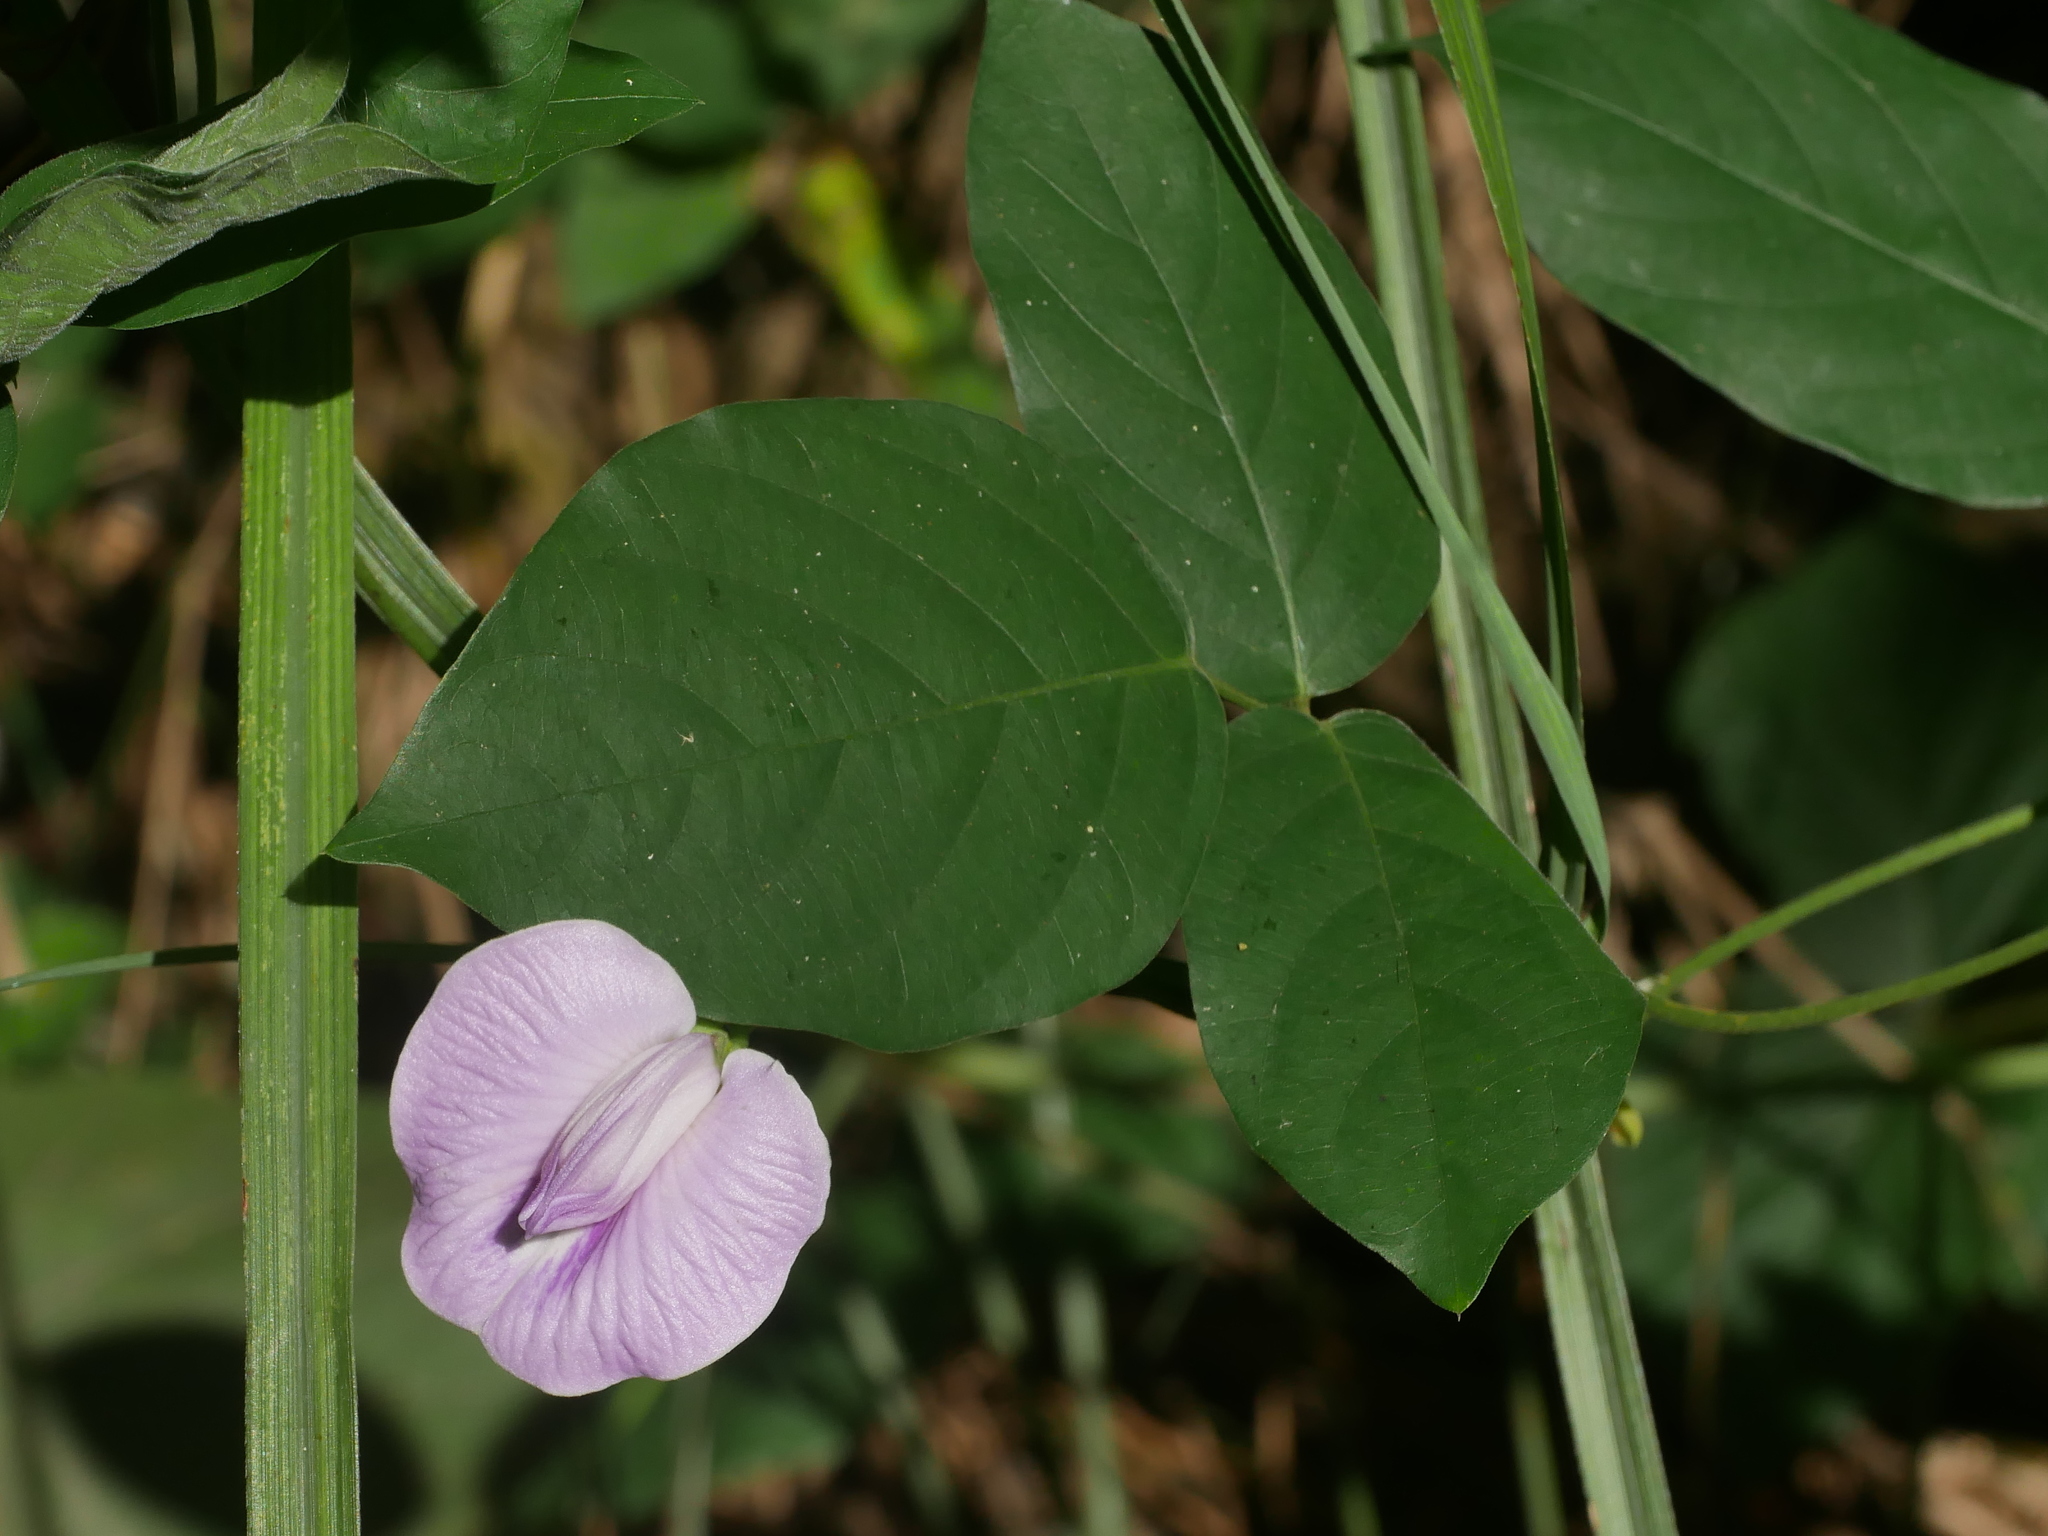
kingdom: Plantae
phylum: Tracheophyta
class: Magnoliopsida
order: Fabales
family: Fabaceae
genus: Centrosema
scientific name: Centrosema pubescens
